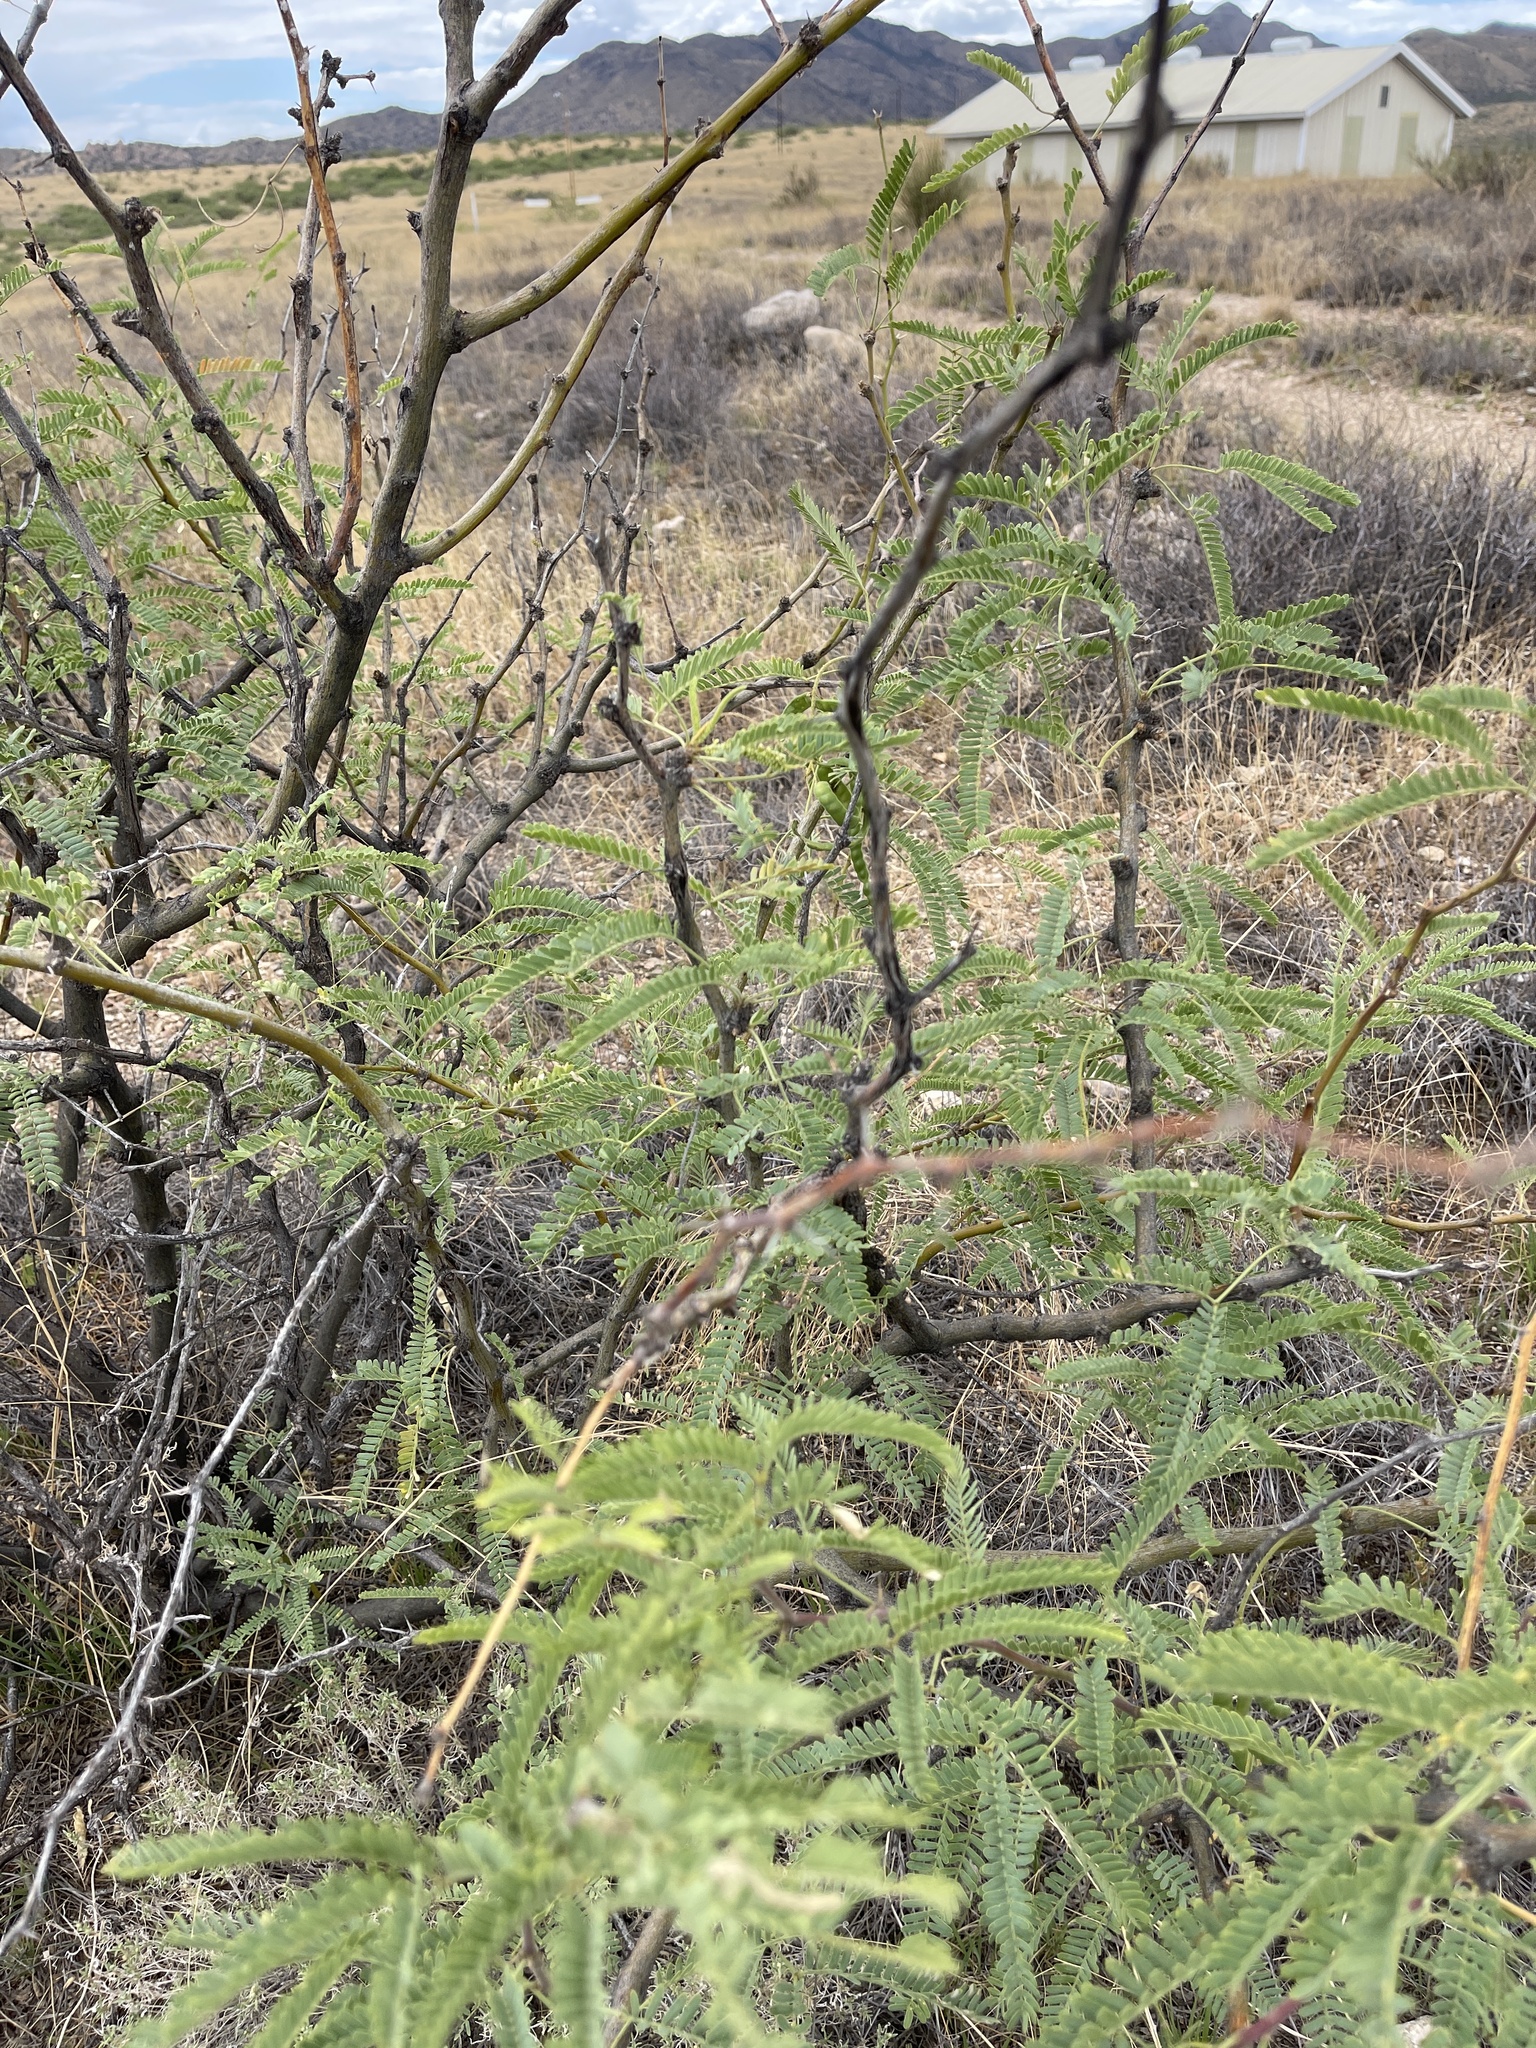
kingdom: Plantae
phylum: Tracheophyta
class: Magnoliopsida
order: Fabales
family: Fabaceae
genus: Prosopis
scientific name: Prosopis velutina
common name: Velvet mesquite
